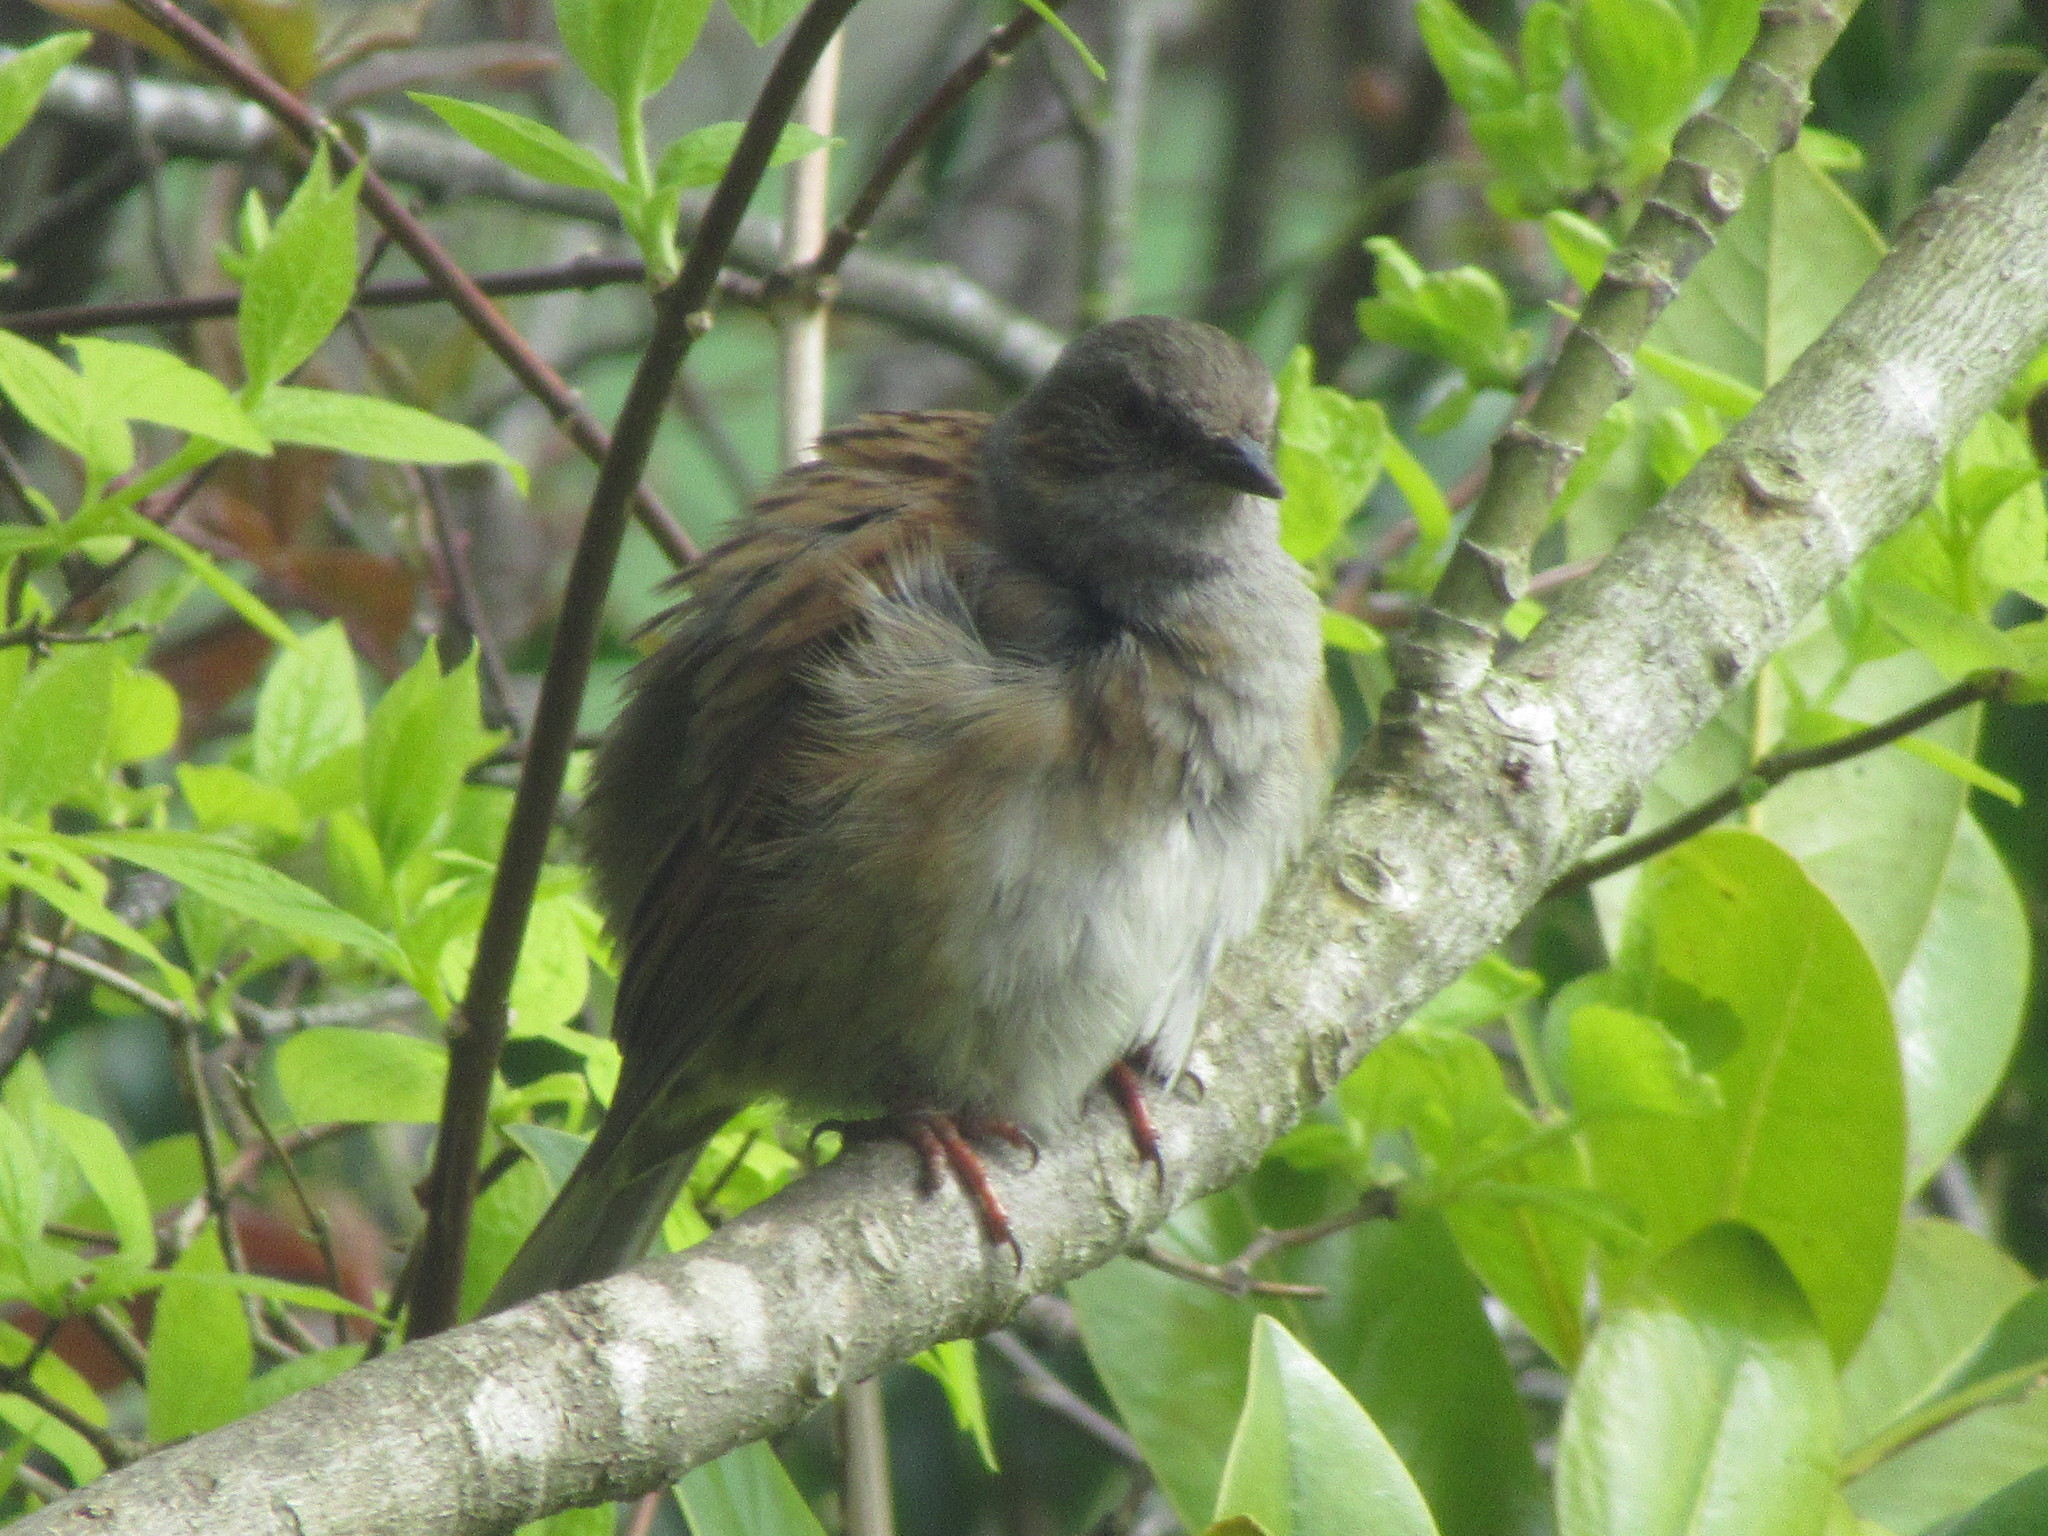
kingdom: Animalia
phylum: Chordata
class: Aves
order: Passeriformes
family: Prunellidae
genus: Prunella
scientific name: Prunella modularis
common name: Dunnock
